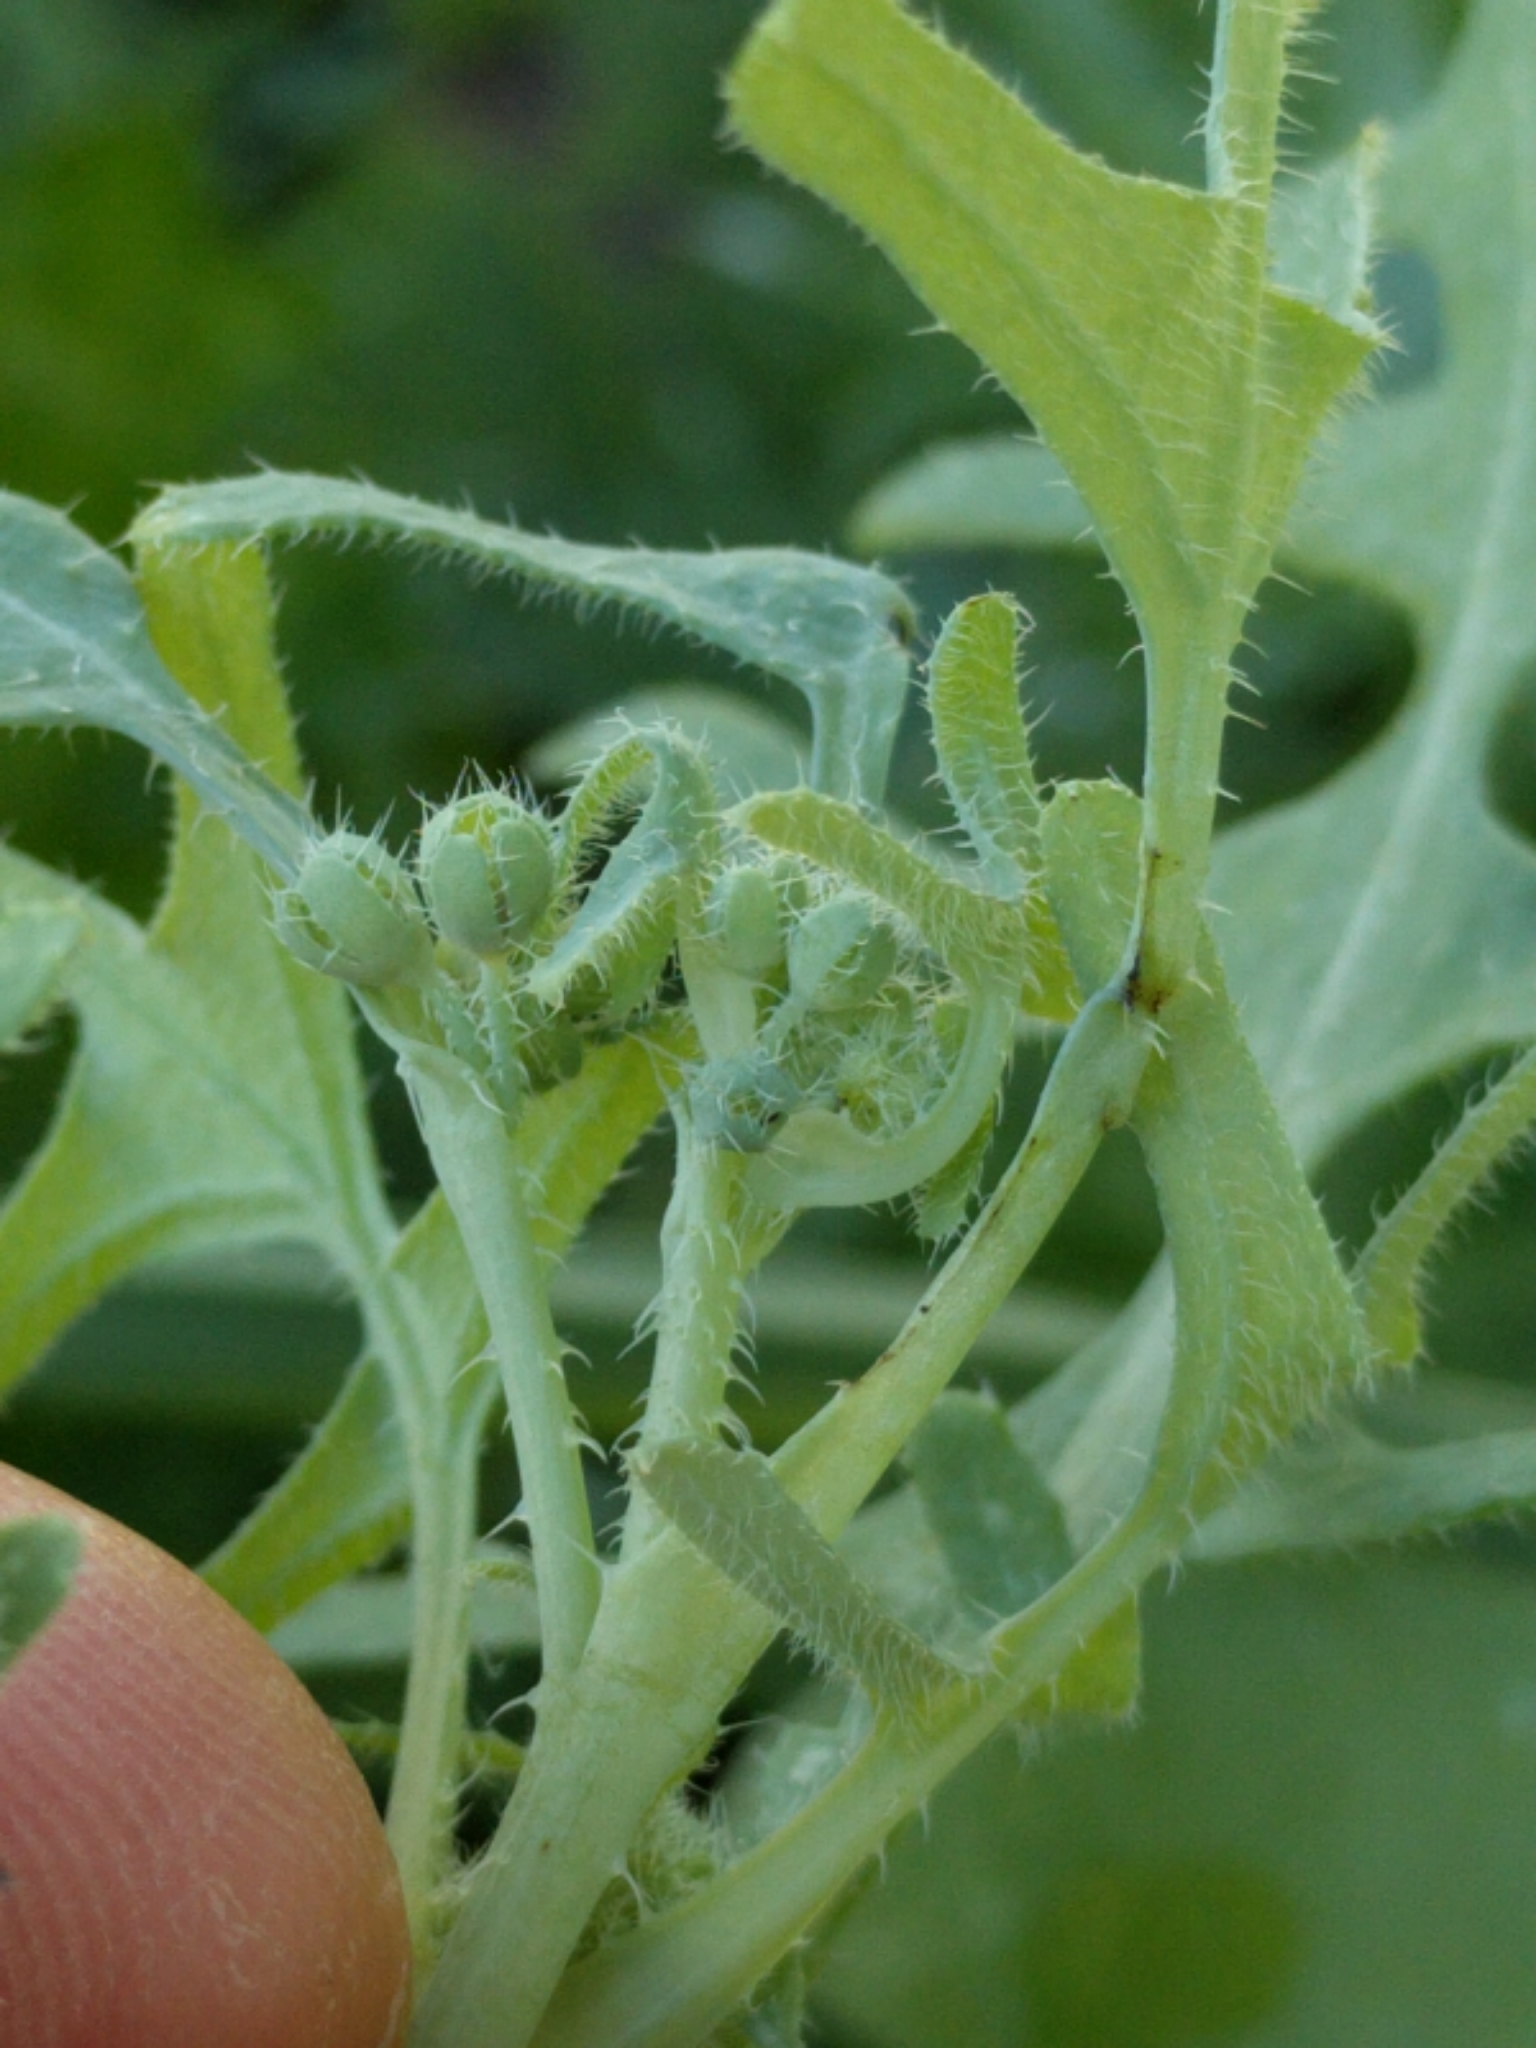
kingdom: Plantae
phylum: Tracheophyta
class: Magnoliopsida
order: Boraginales
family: Hydrophyllaceae
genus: Pholistoma
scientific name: Pholistoma membranaceum
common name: White fiesta-flower
